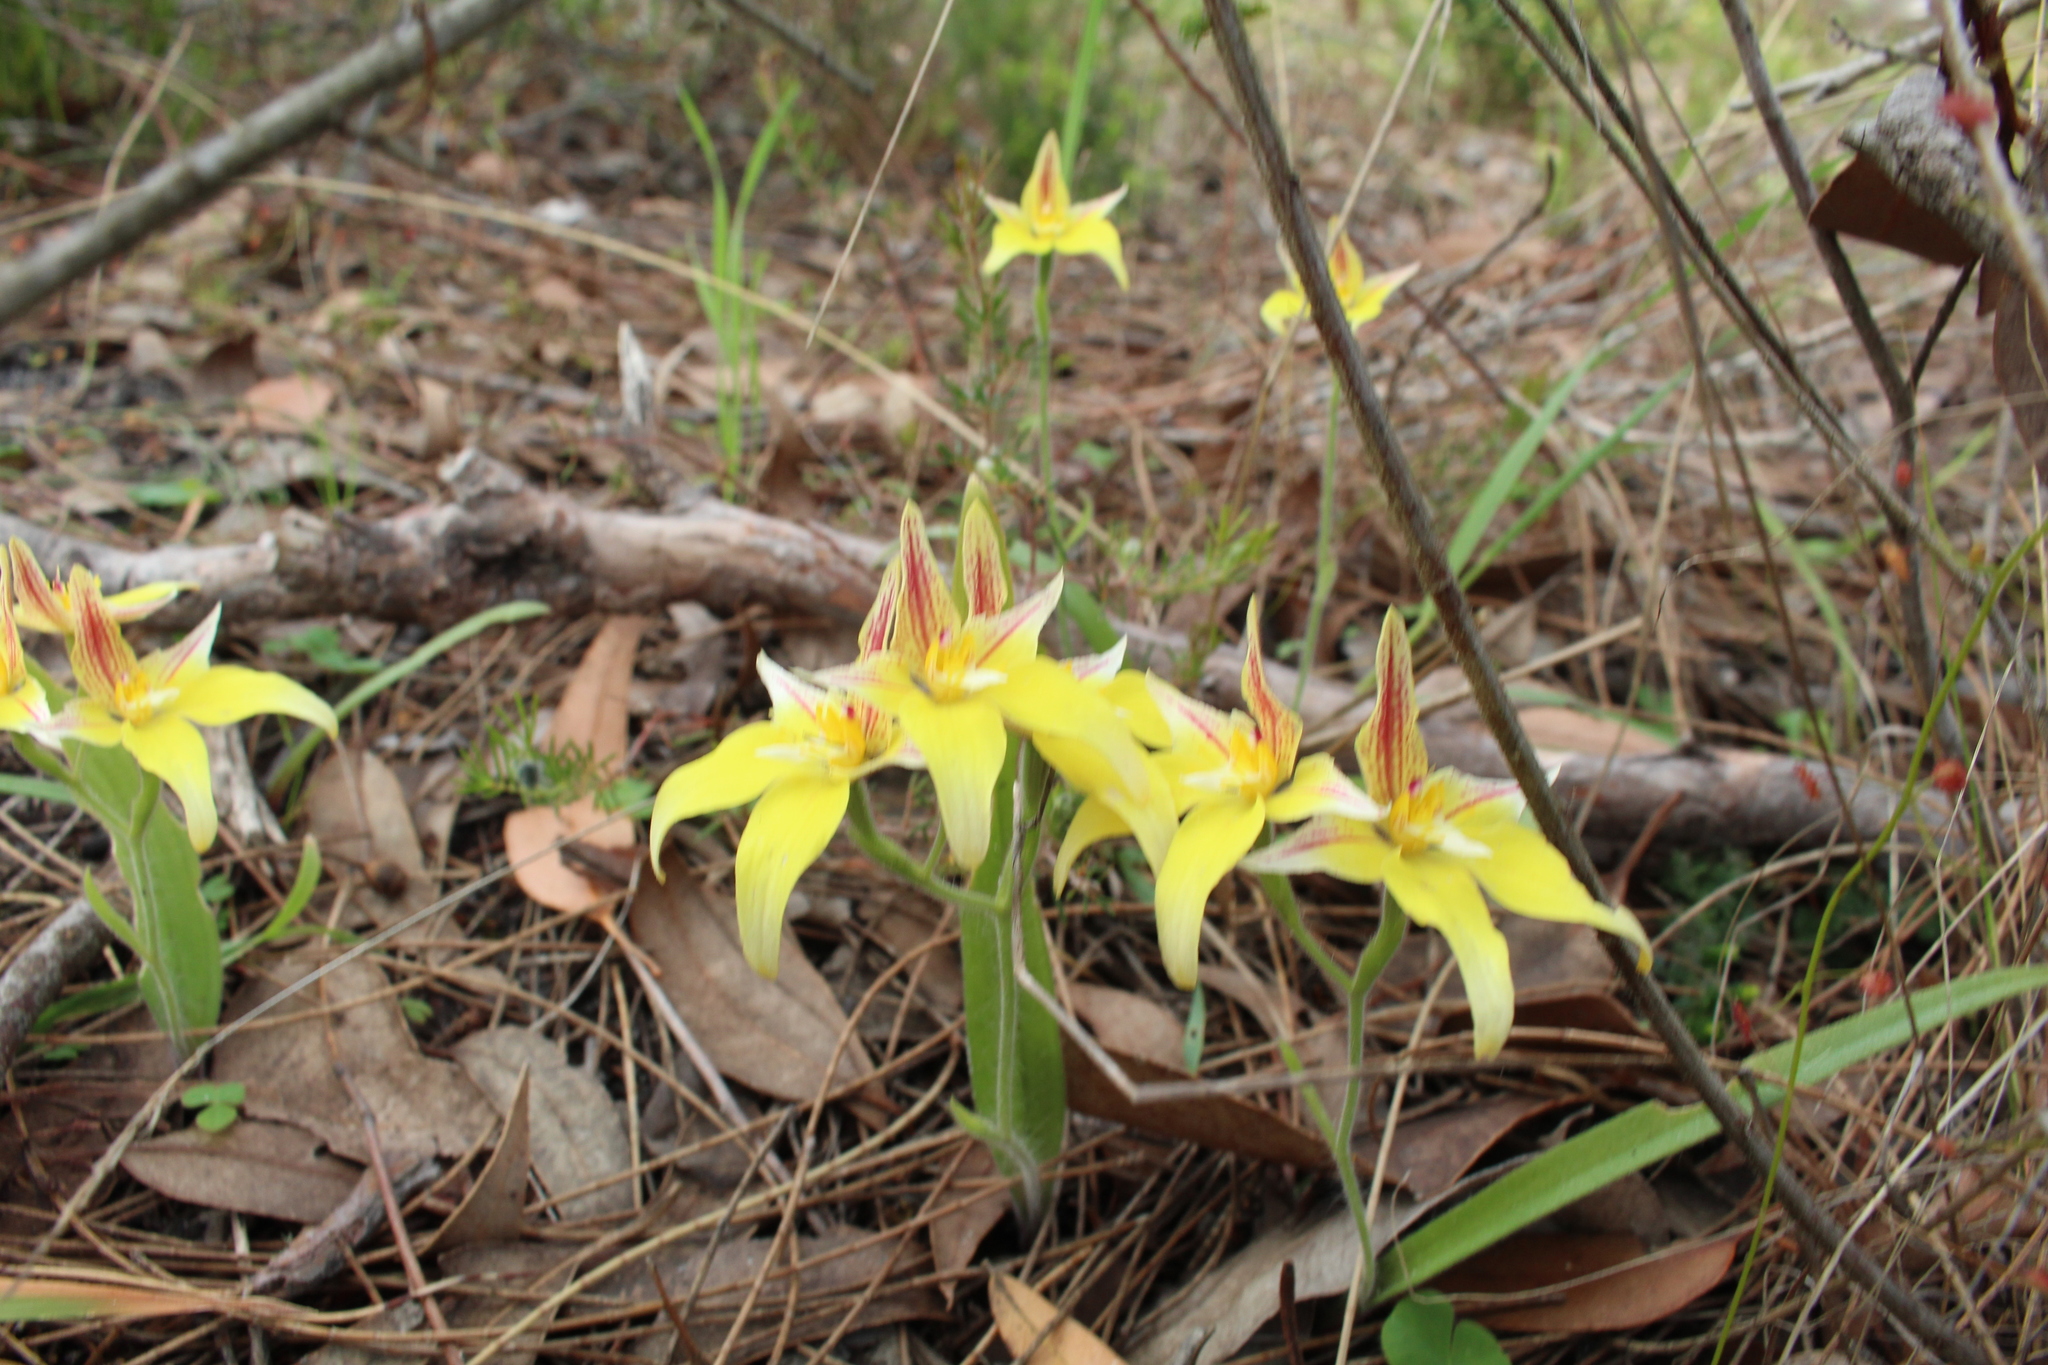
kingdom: Plantae
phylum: Tracheophyta
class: Liliopsida
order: Asparagales
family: Orchidaceae
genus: Caladenia
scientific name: Caladenia flava
